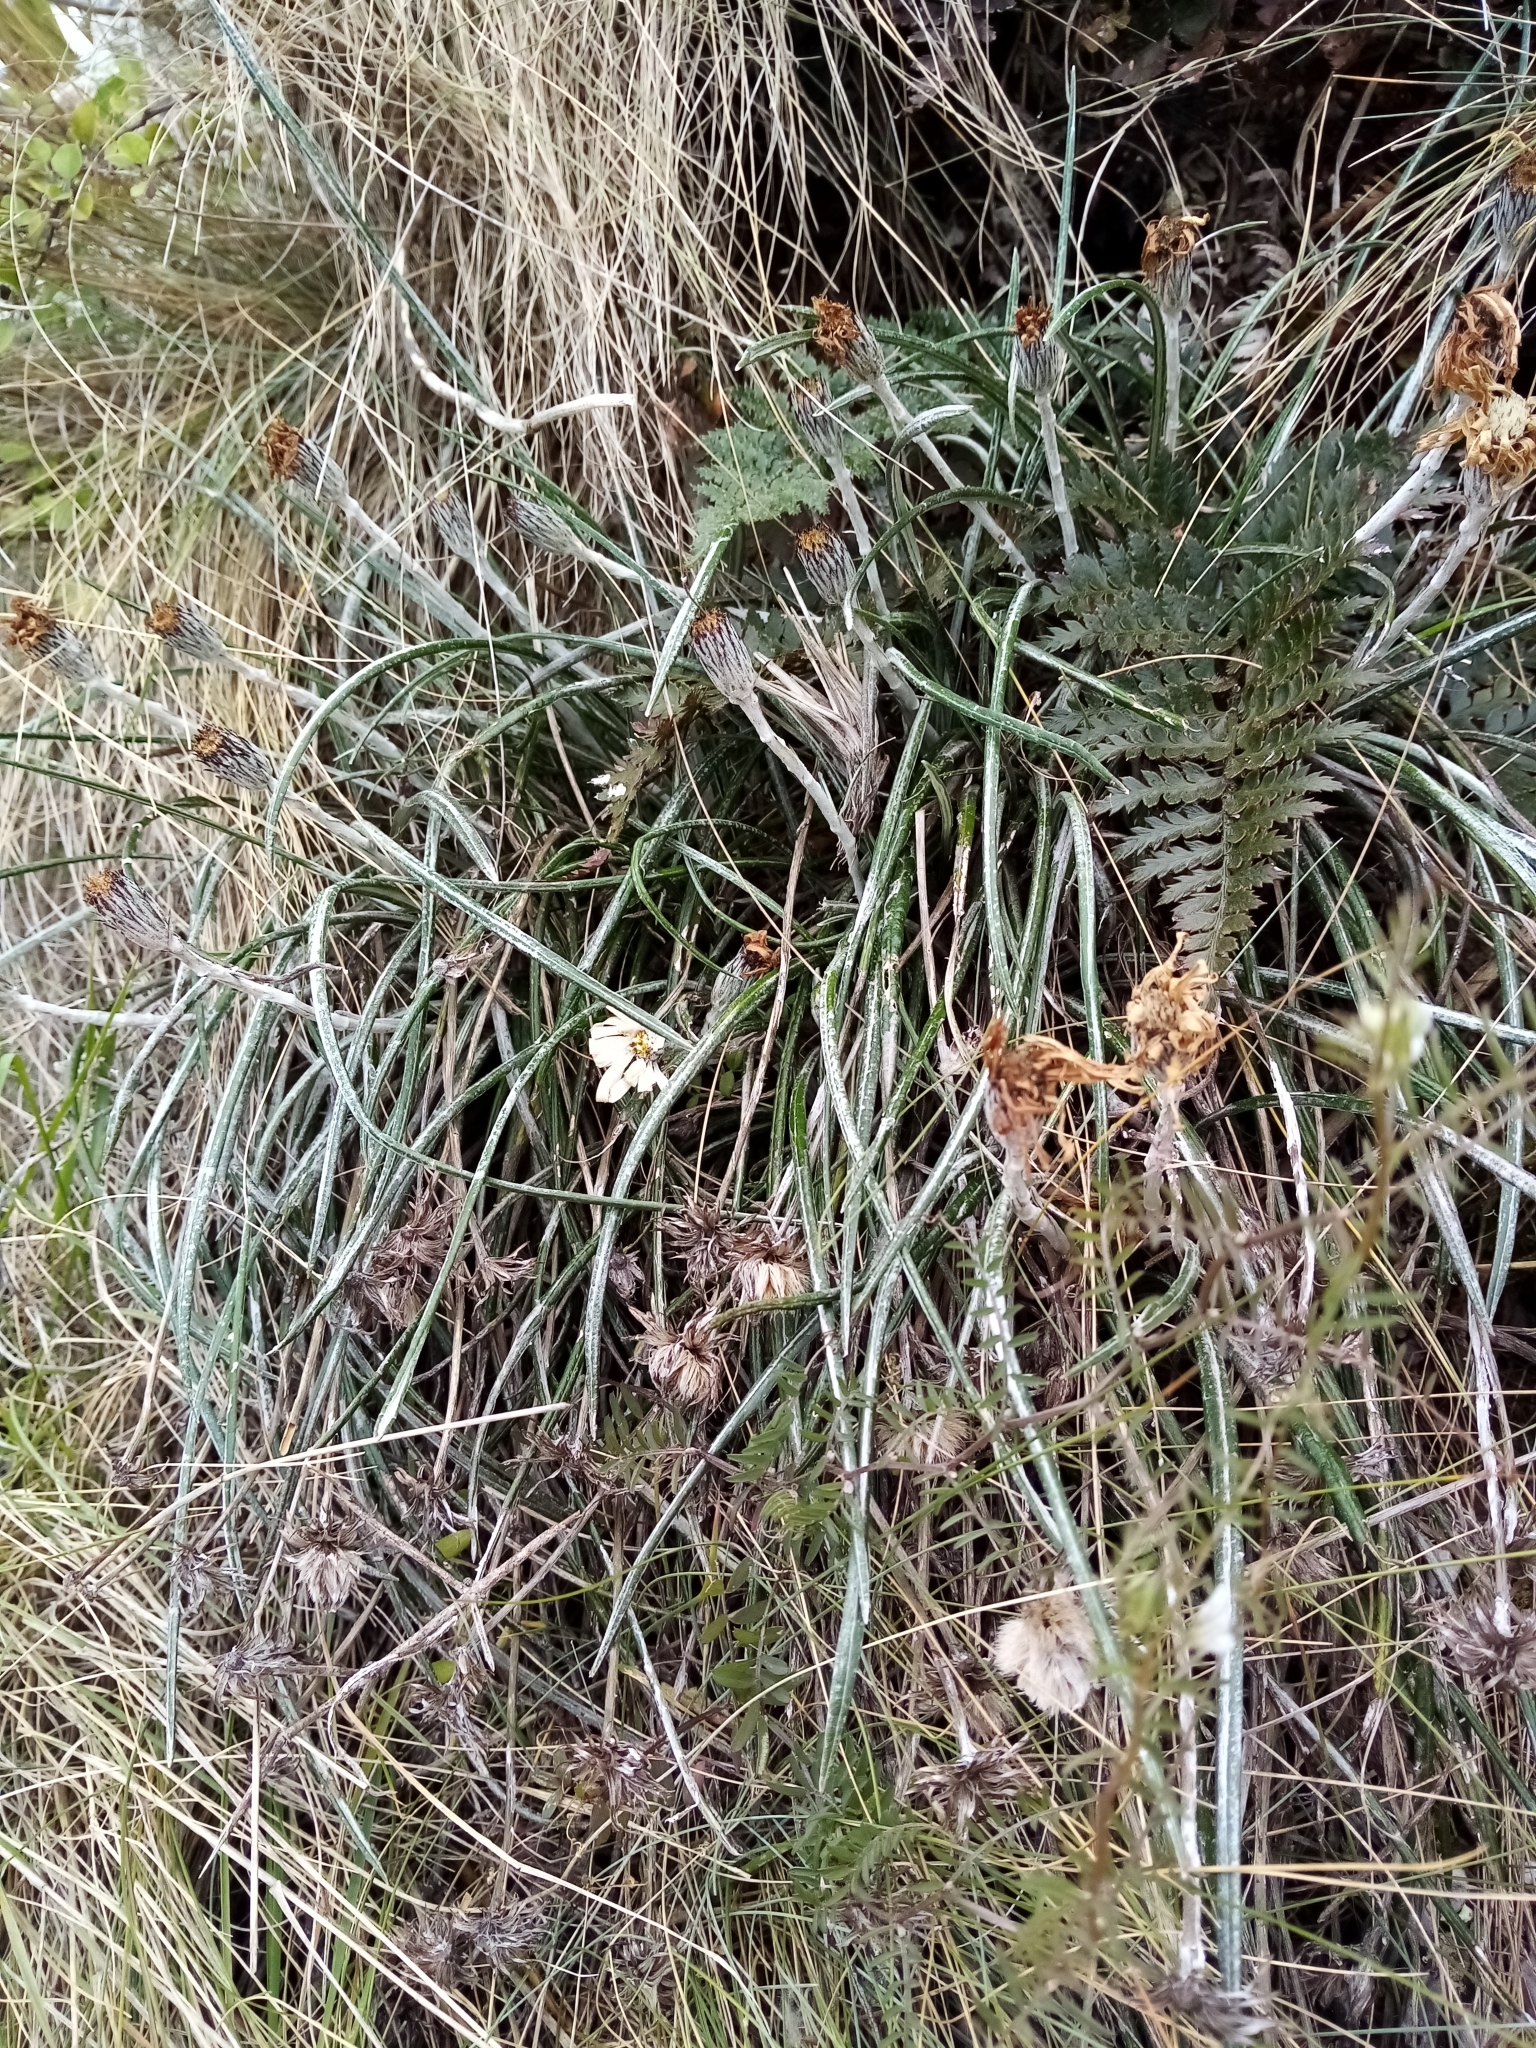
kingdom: Plantae
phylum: Tracheophyta
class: Magnoliopsida
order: Asterales
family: Asteraceae
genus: Celmisia
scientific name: Celmisia gracilenta
